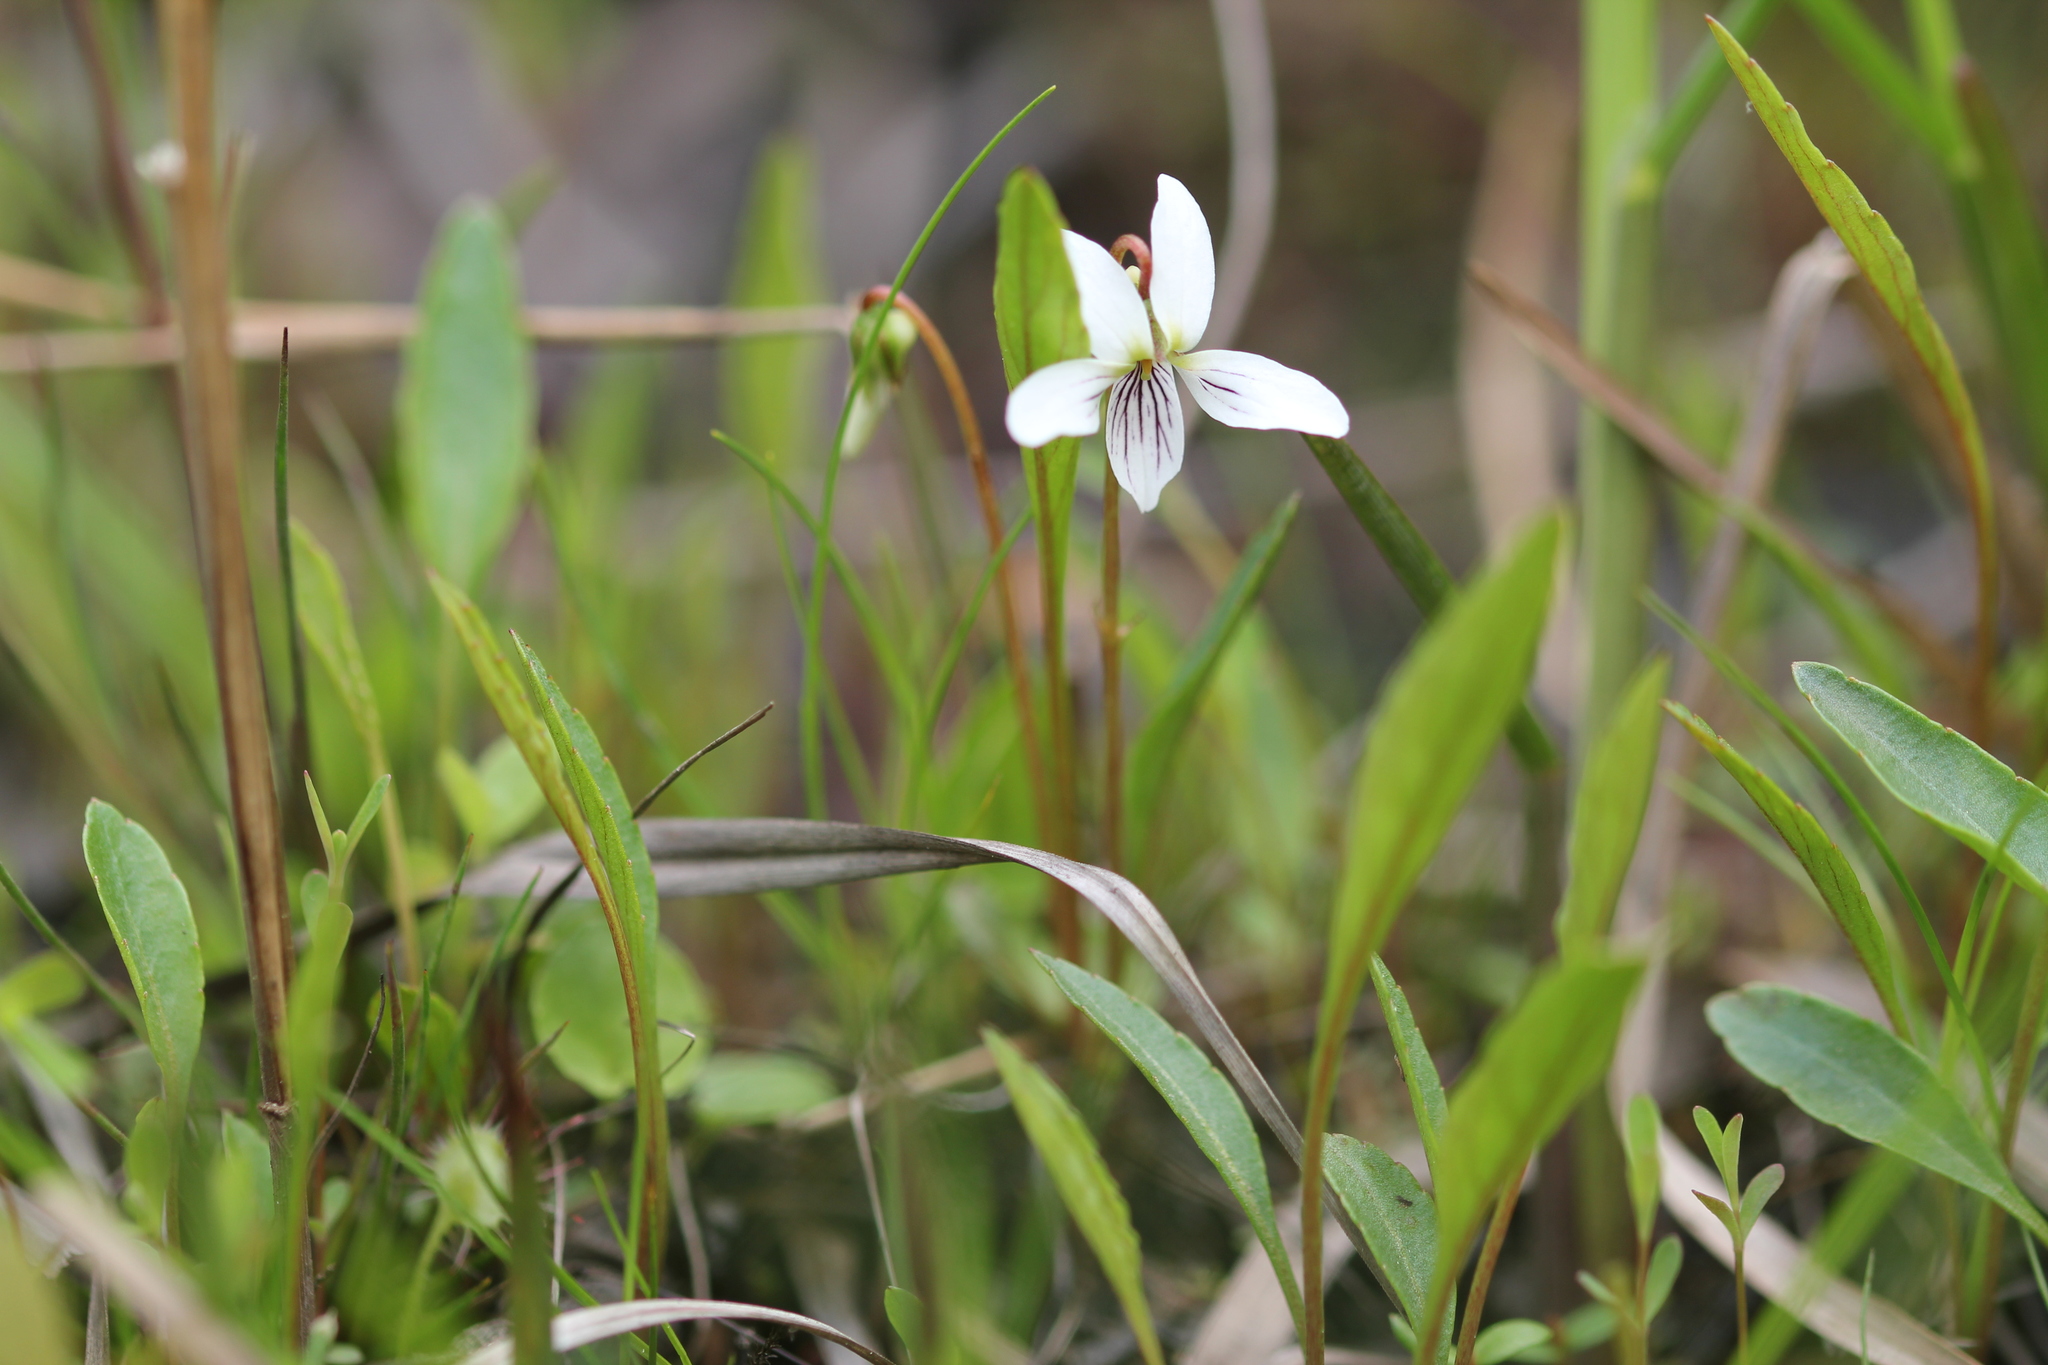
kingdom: Plantae
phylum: Tracheophyta
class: Magnoliopsida
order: Malpighiales
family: Violaceae
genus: Viola
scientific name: Viola lanceolata
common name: Bog white violet
